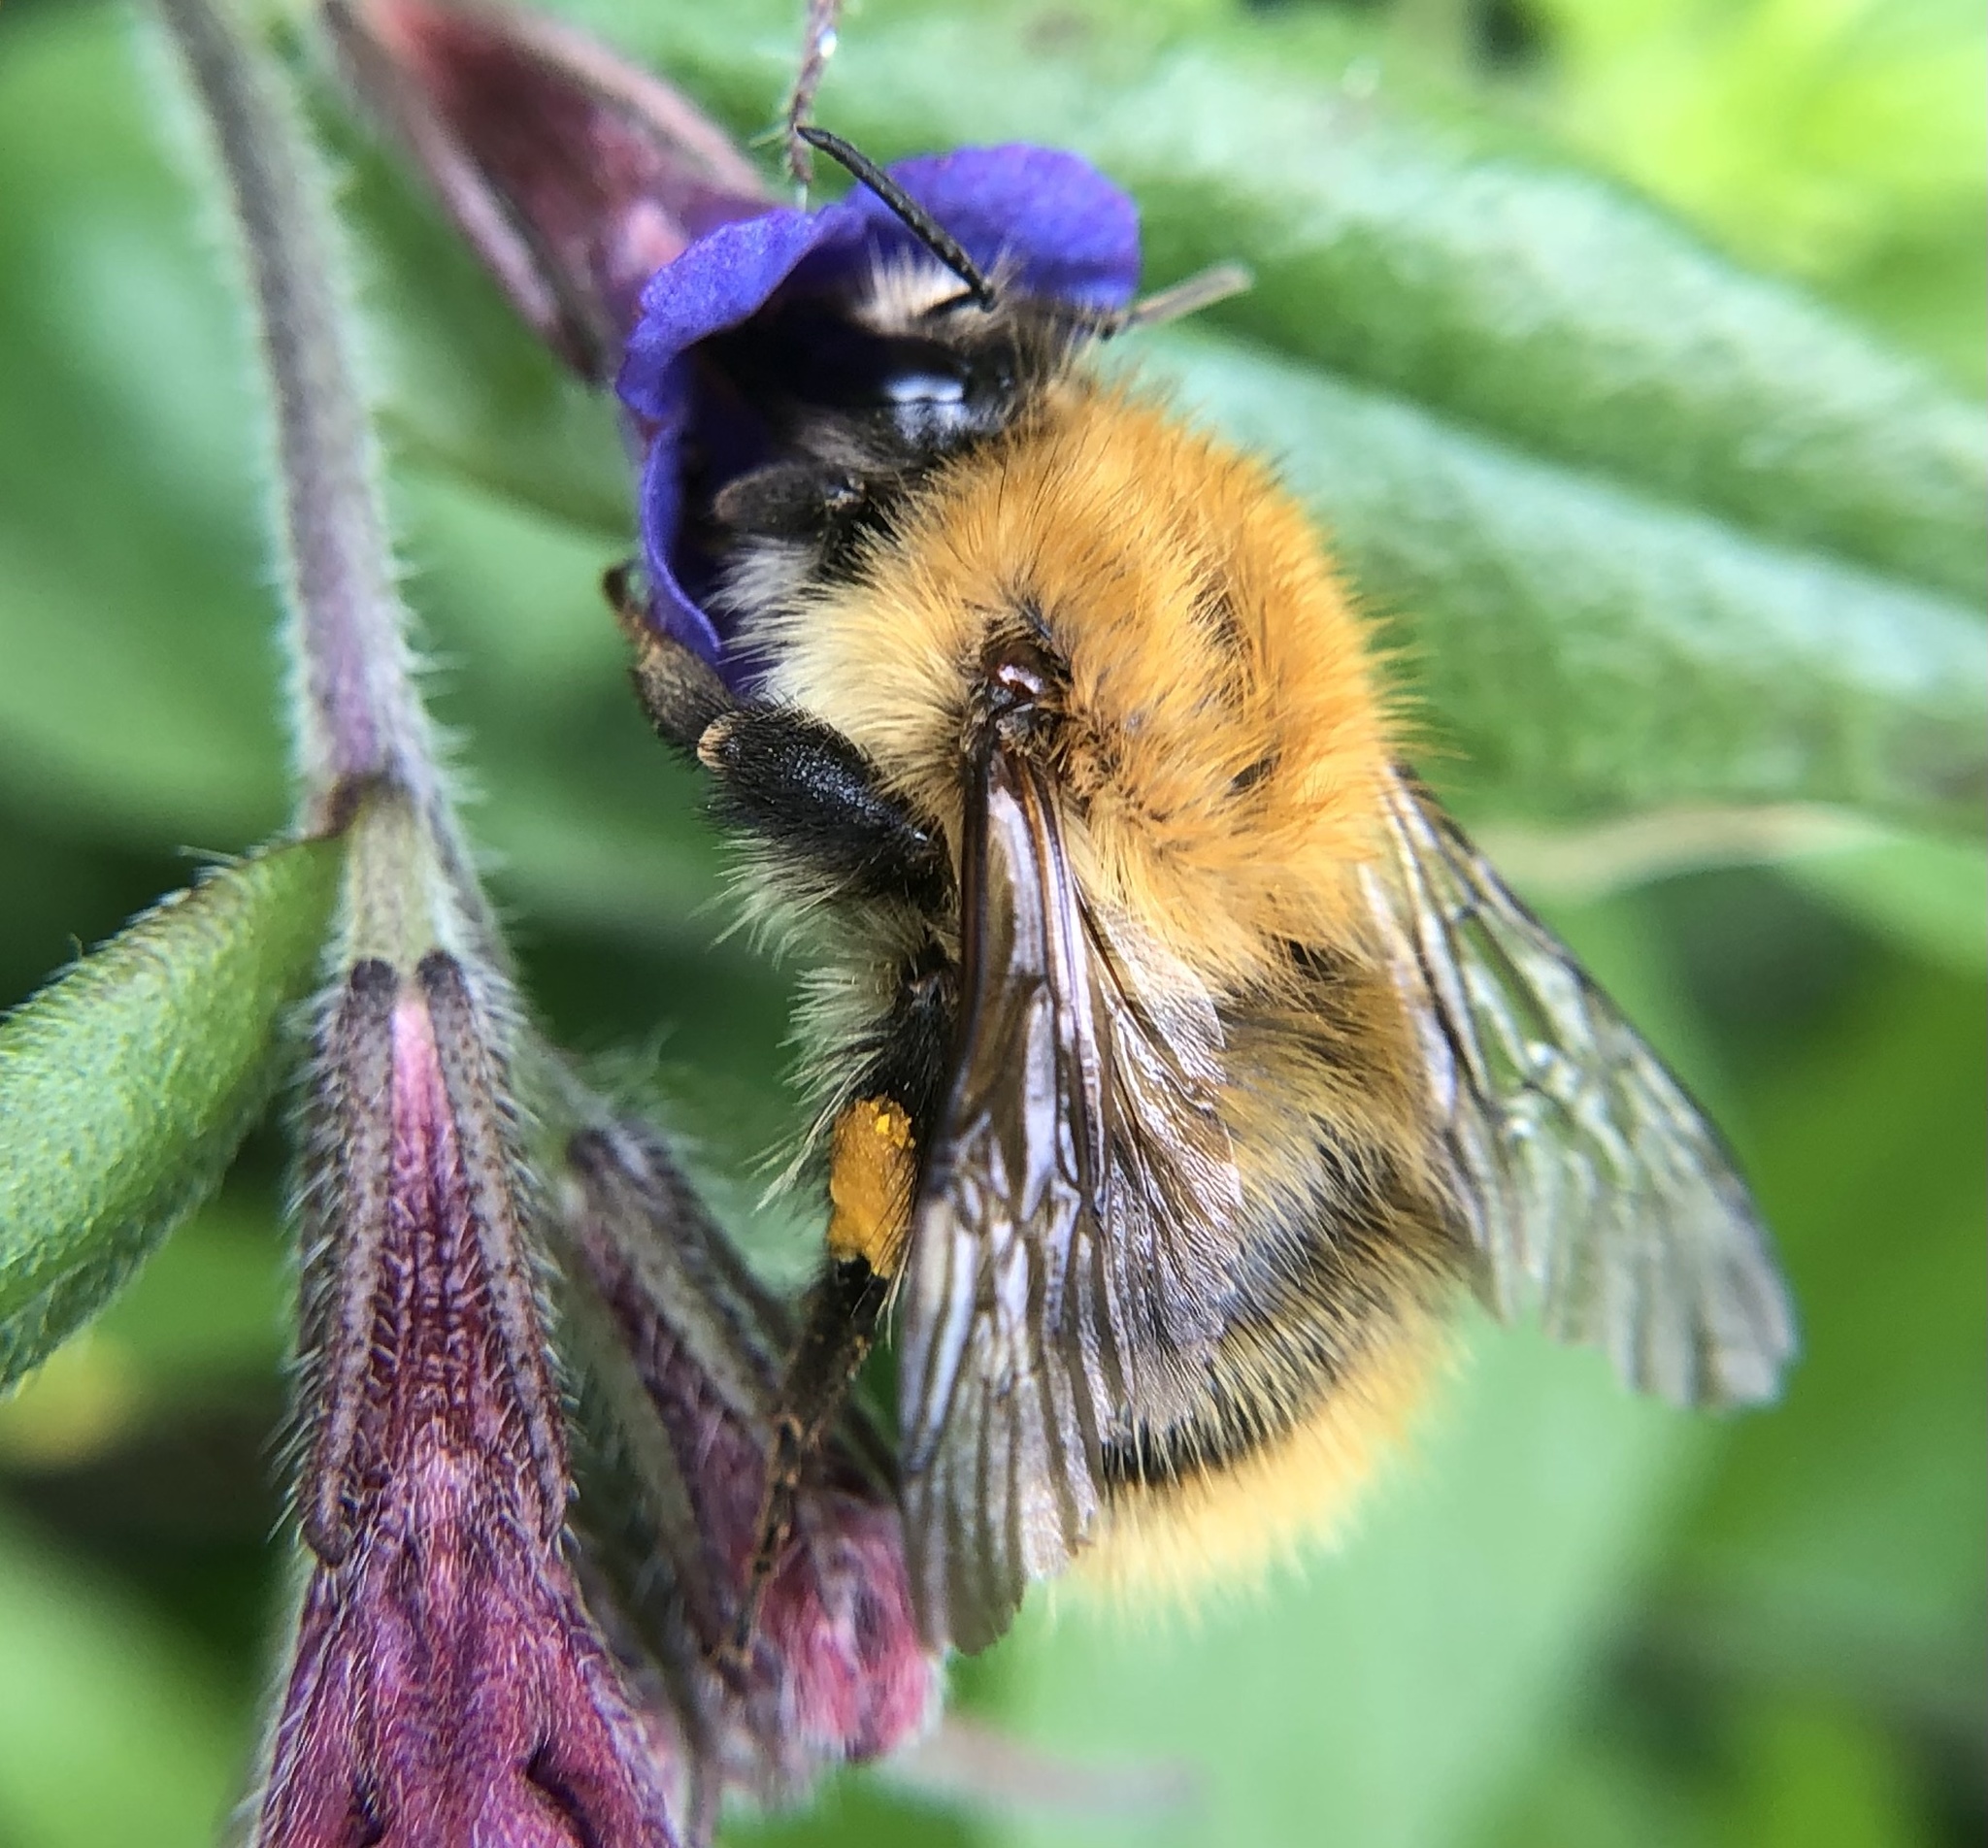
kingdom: Animalia
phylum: Arthropoda
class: Insecta
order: Hymenoptera
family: Apidae
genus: Bombus
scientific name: Bombus pascuorum
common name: Common carder bee
